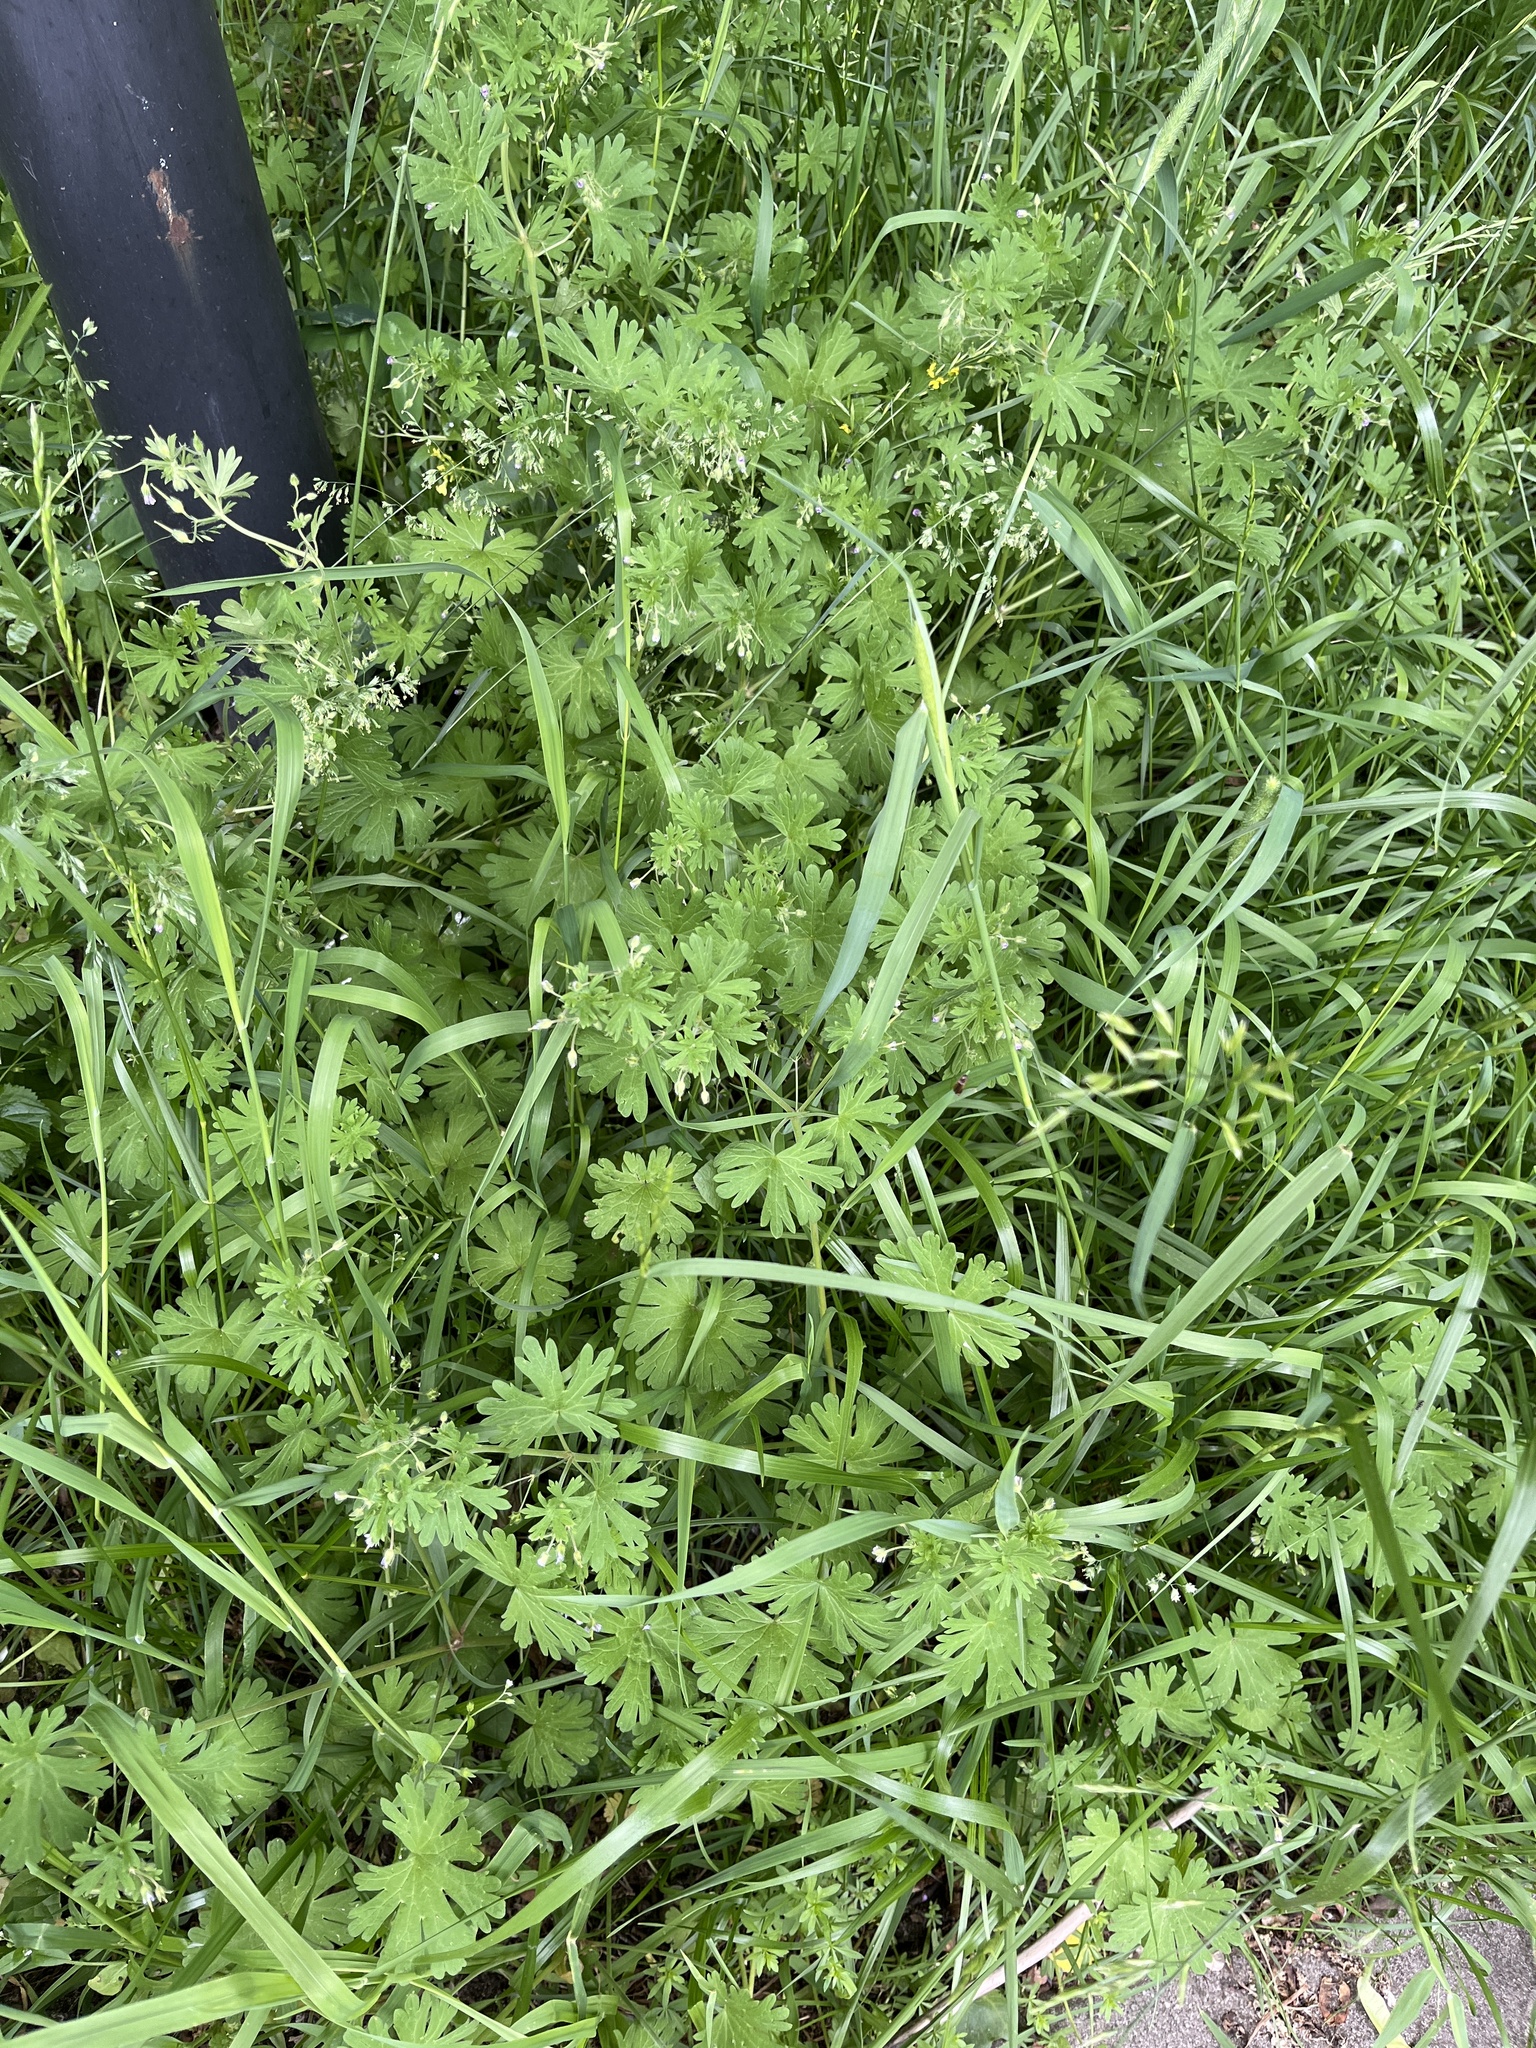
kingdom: Plantae
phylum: Tracheophyta
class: Magnoliopsida
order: Geraniales
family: Geraniaceae
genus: Geranium
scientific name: Geranium pusillum
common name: Small geranium
